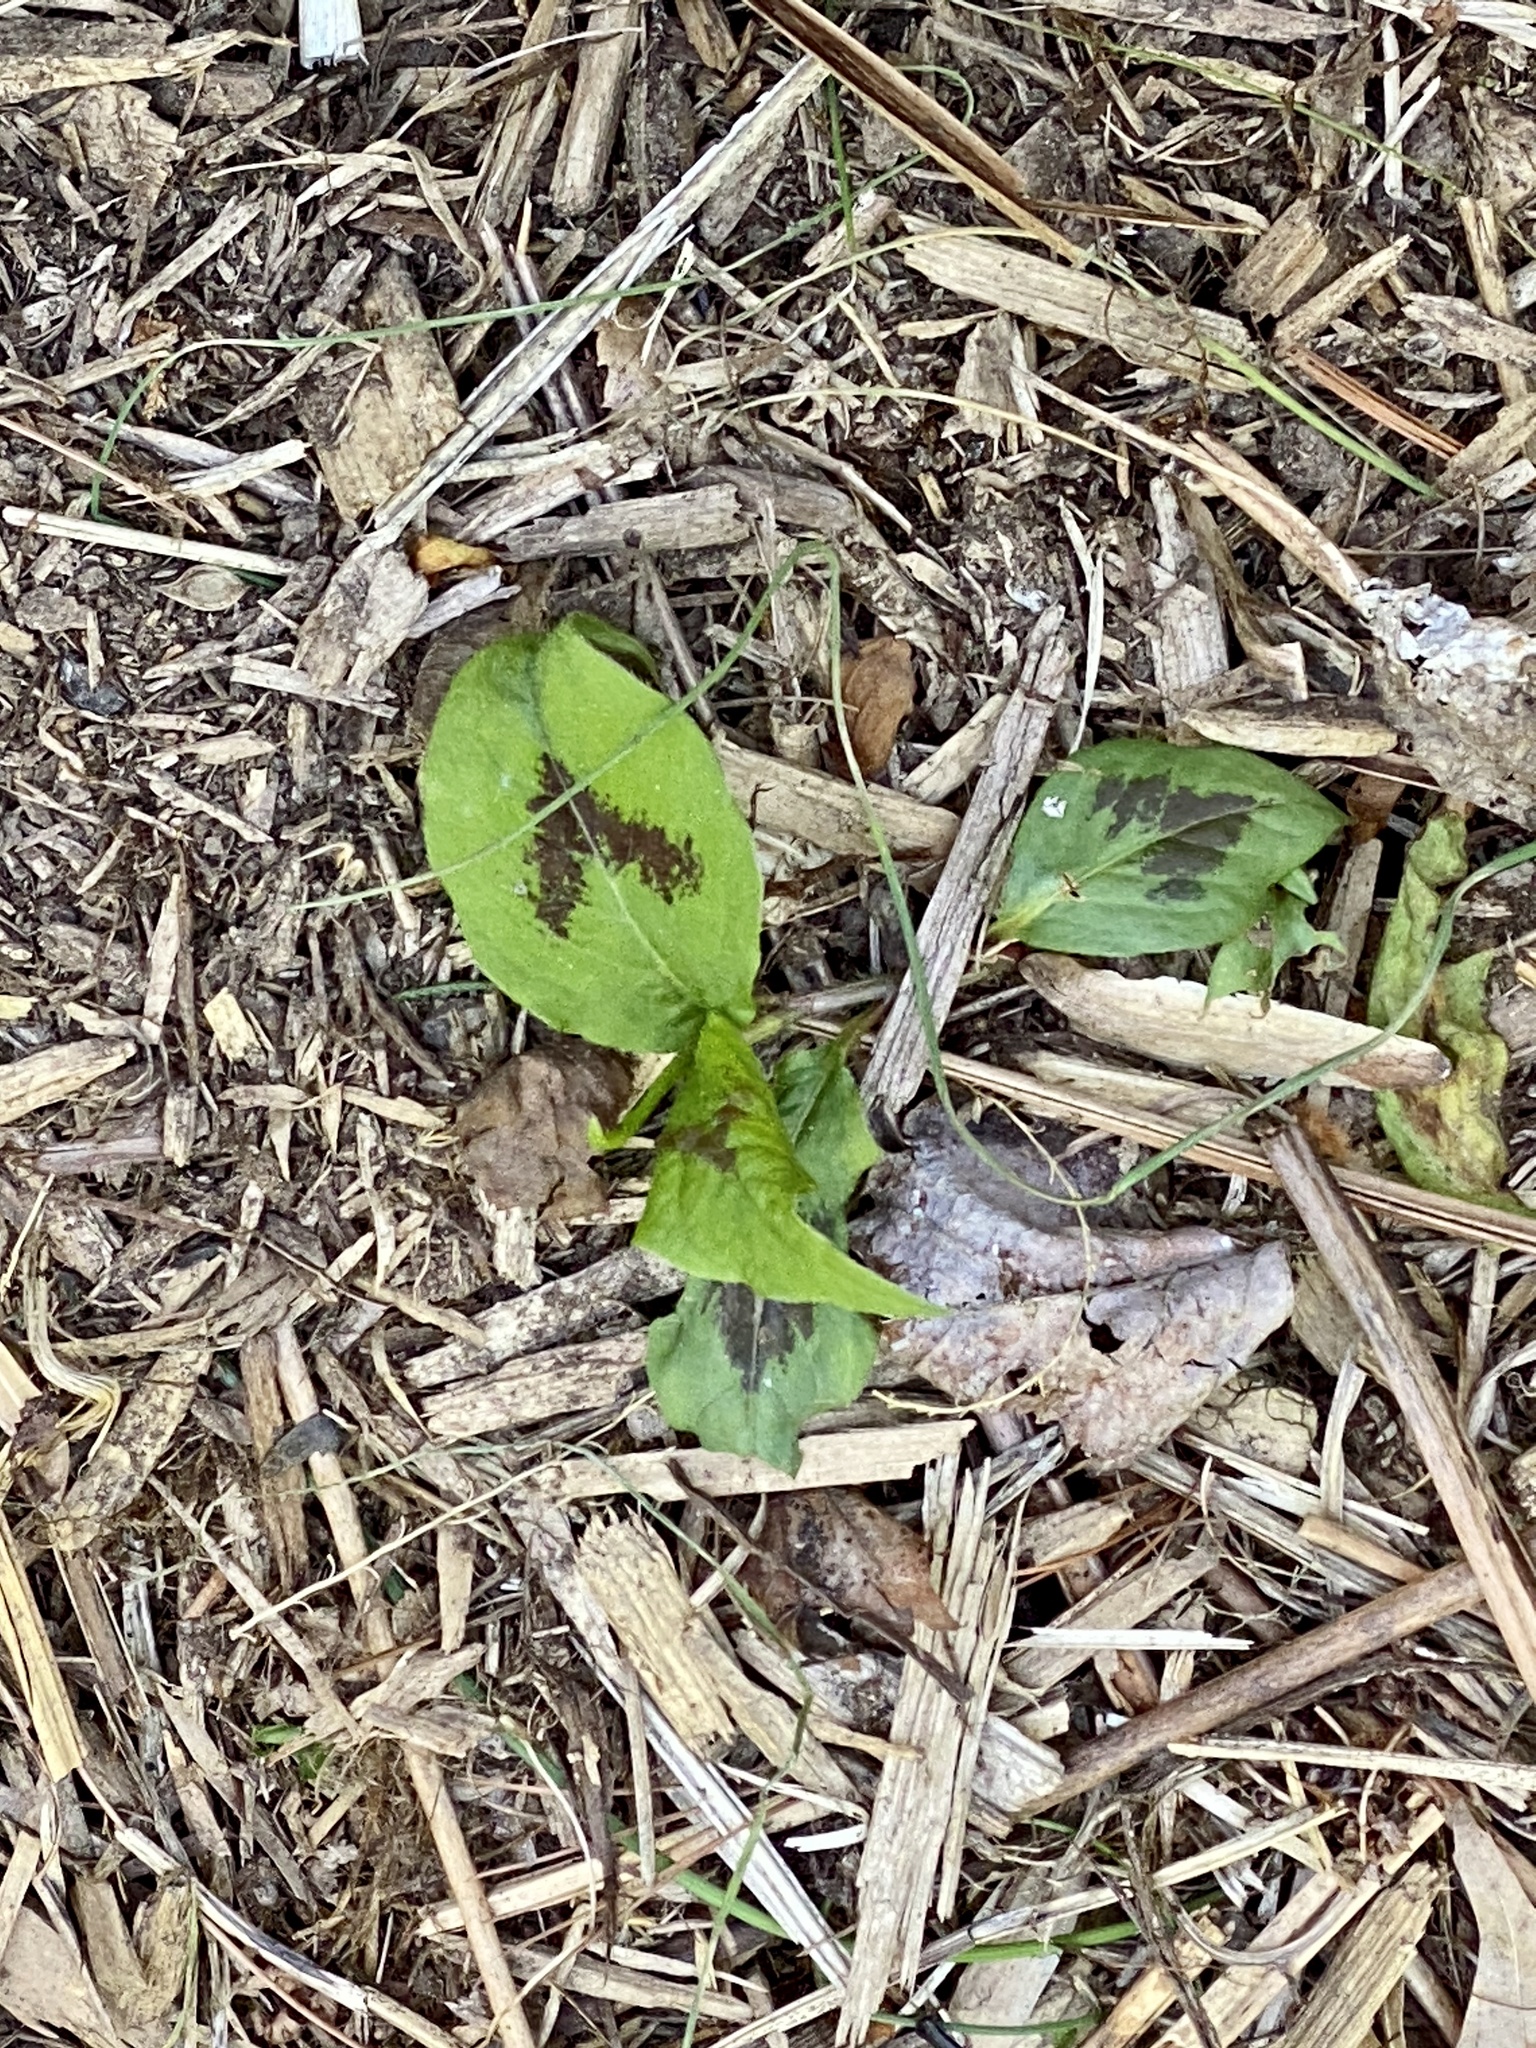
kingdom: Plantae
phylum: Tracheophyta
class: Magnoliopsida
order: Caryophyllales
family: Polygonaceae
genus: Persicaria
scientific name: Persicaria virginiana
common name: Jumpseed
